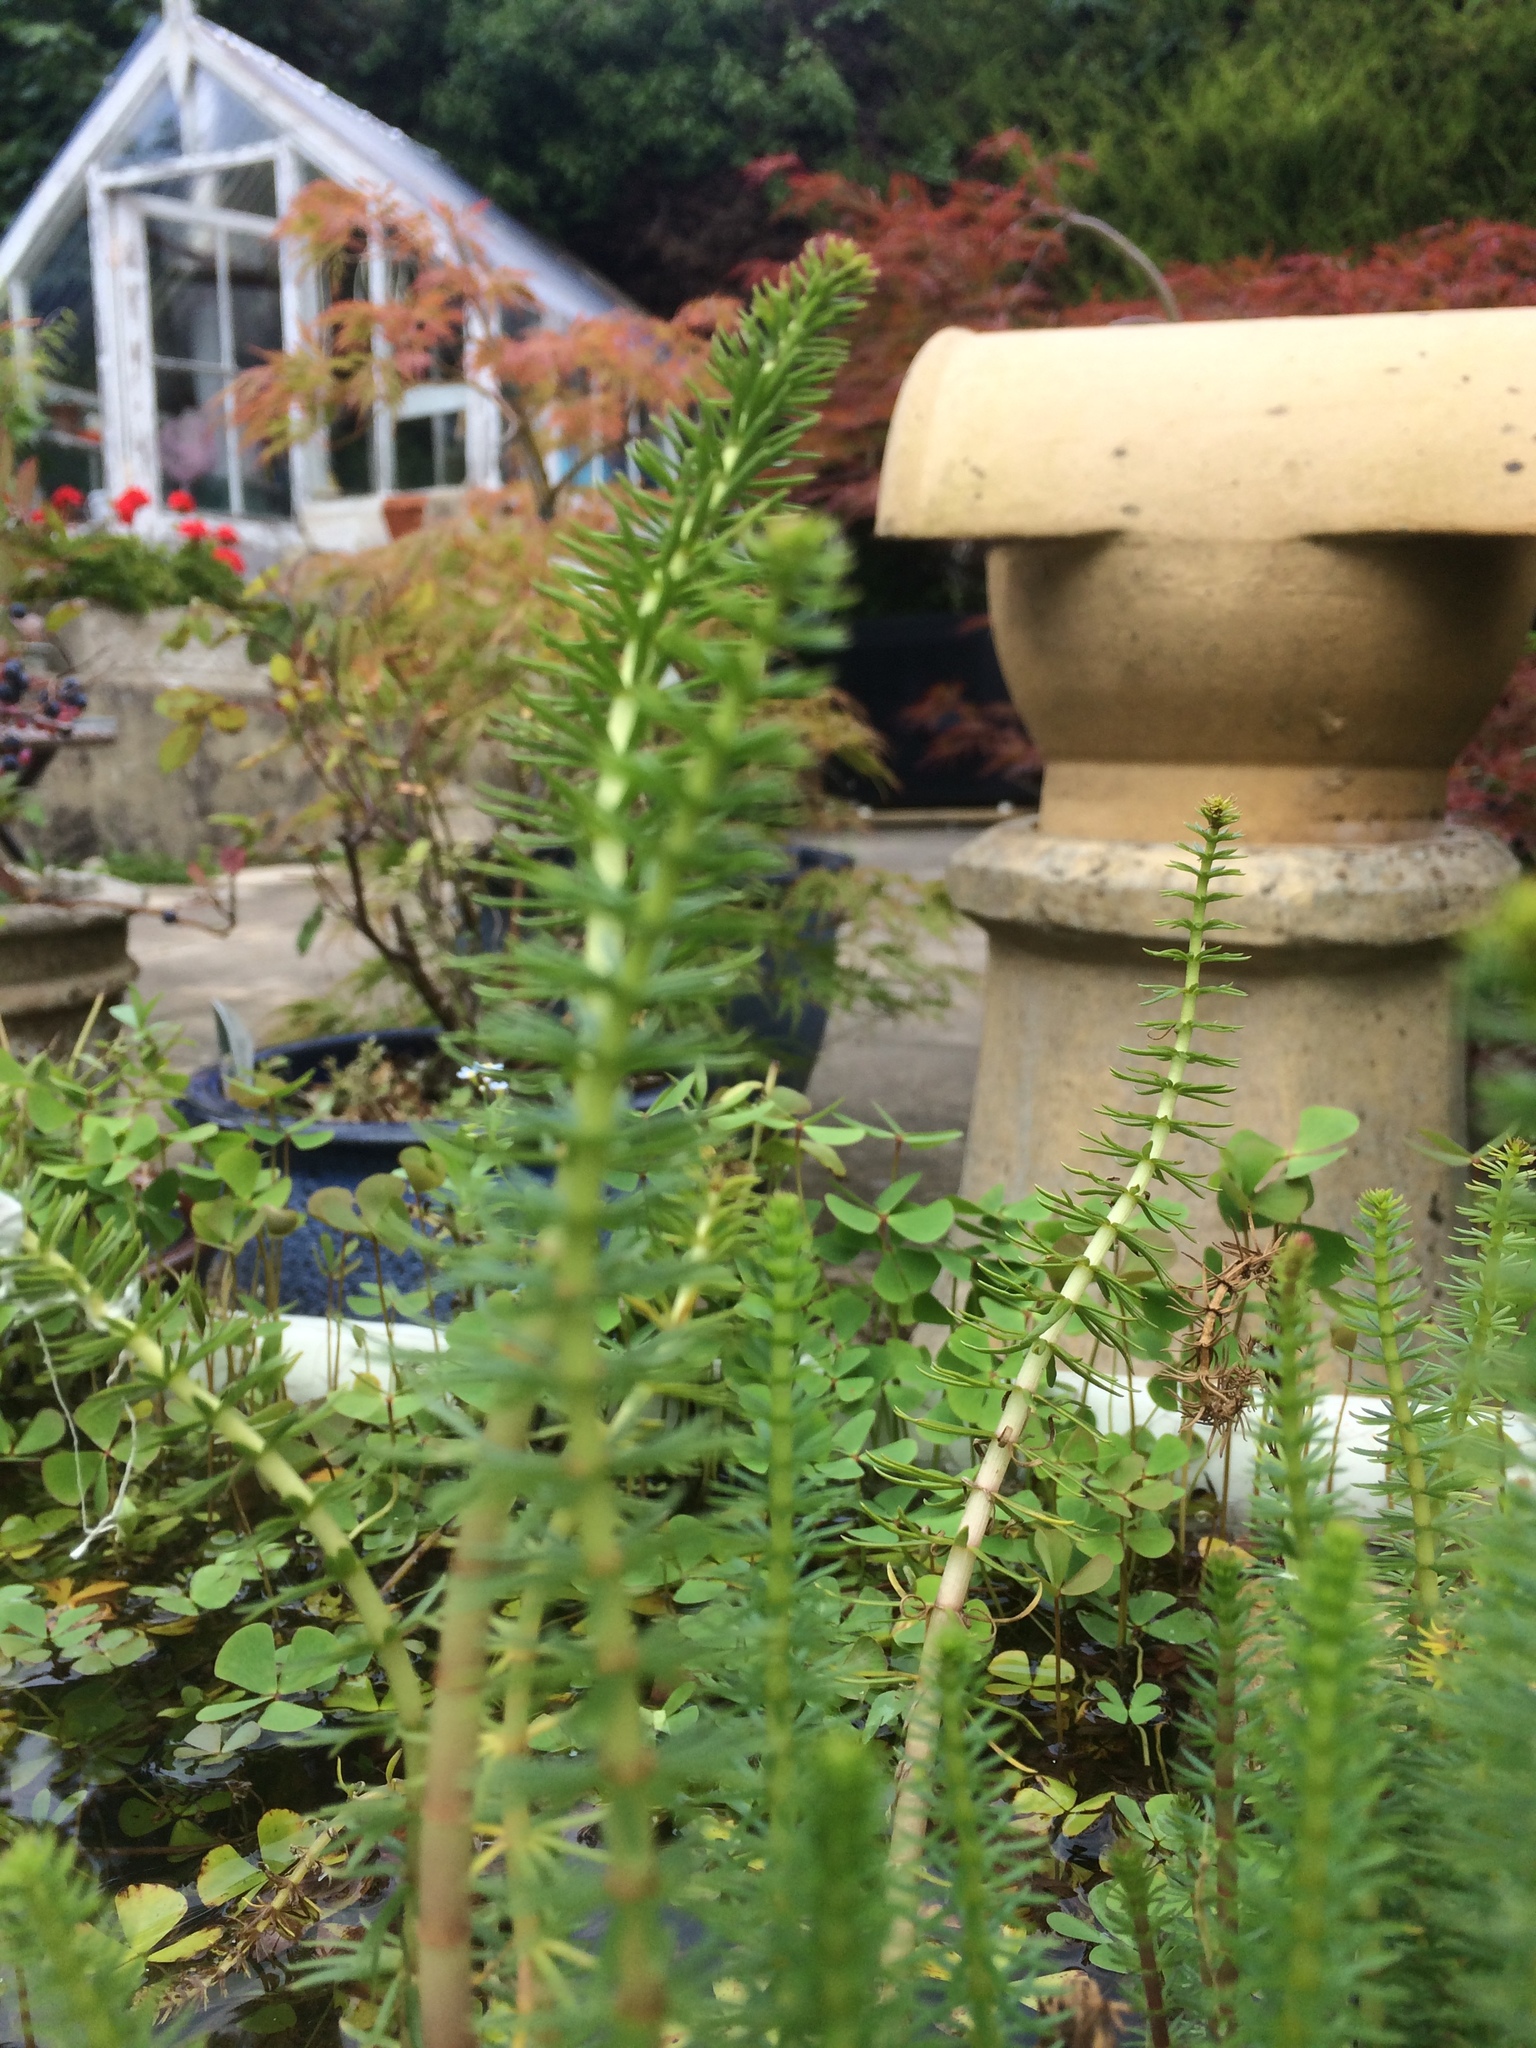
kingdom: Plantae
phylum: Tracheophyta
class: Magnoliopsida
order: Lamiales
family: Plantaginaceae
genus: Hippuris
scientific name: Hippuris vulgaris
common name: Mare's-tail
